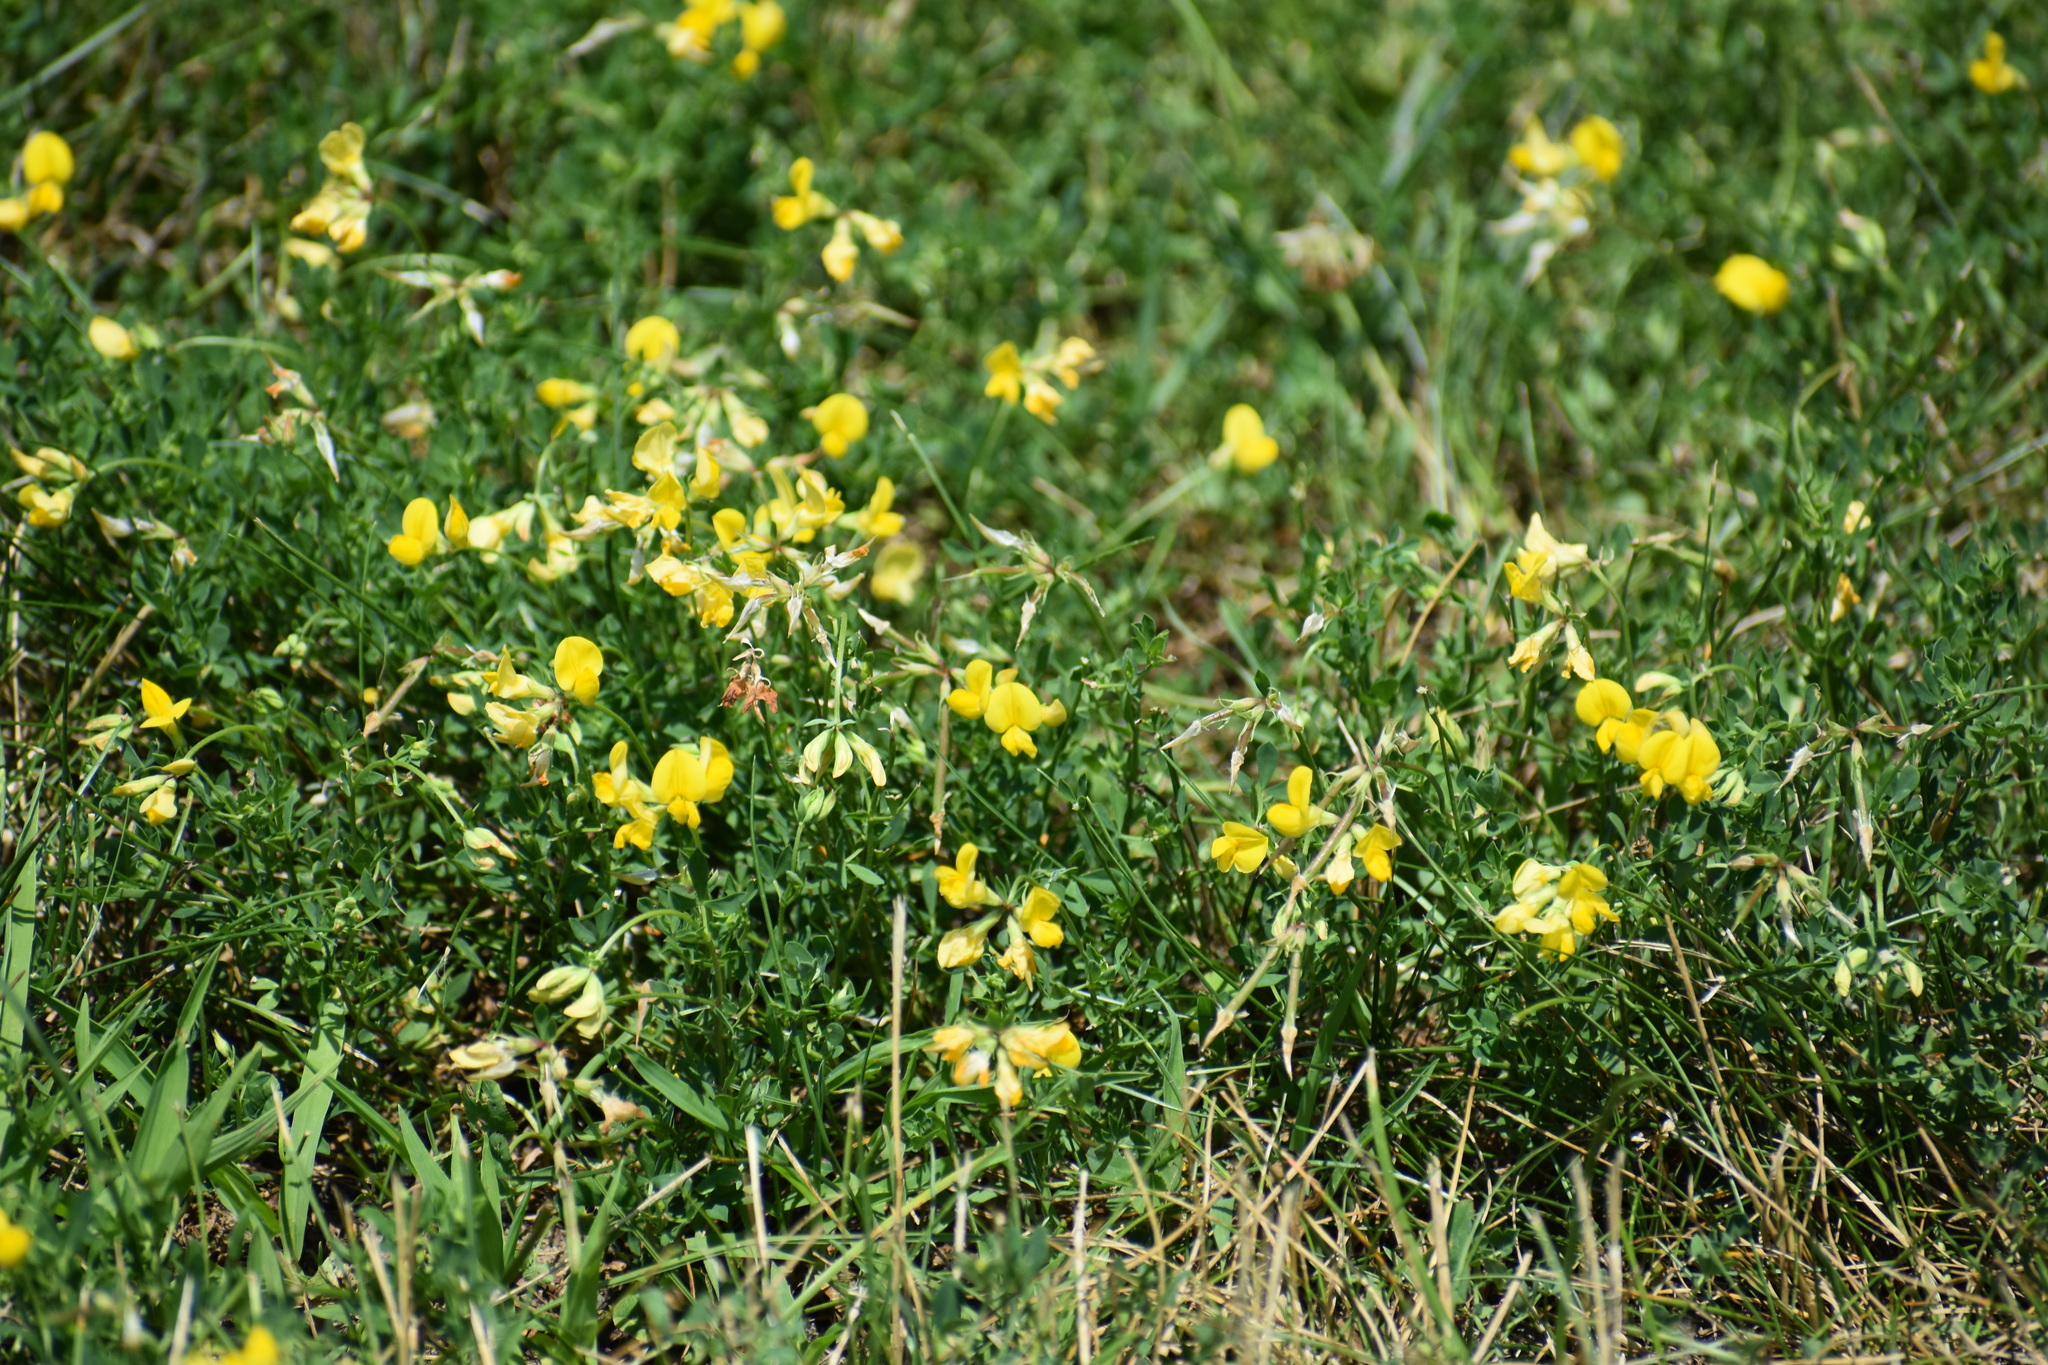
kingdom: Plantae
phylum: Tracheophyta
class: Magnoliopsida
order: Fabales
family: Fabaceae
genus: Lotus
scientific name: Lotus corniculatus
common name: Common bird's-foot-trefoil
